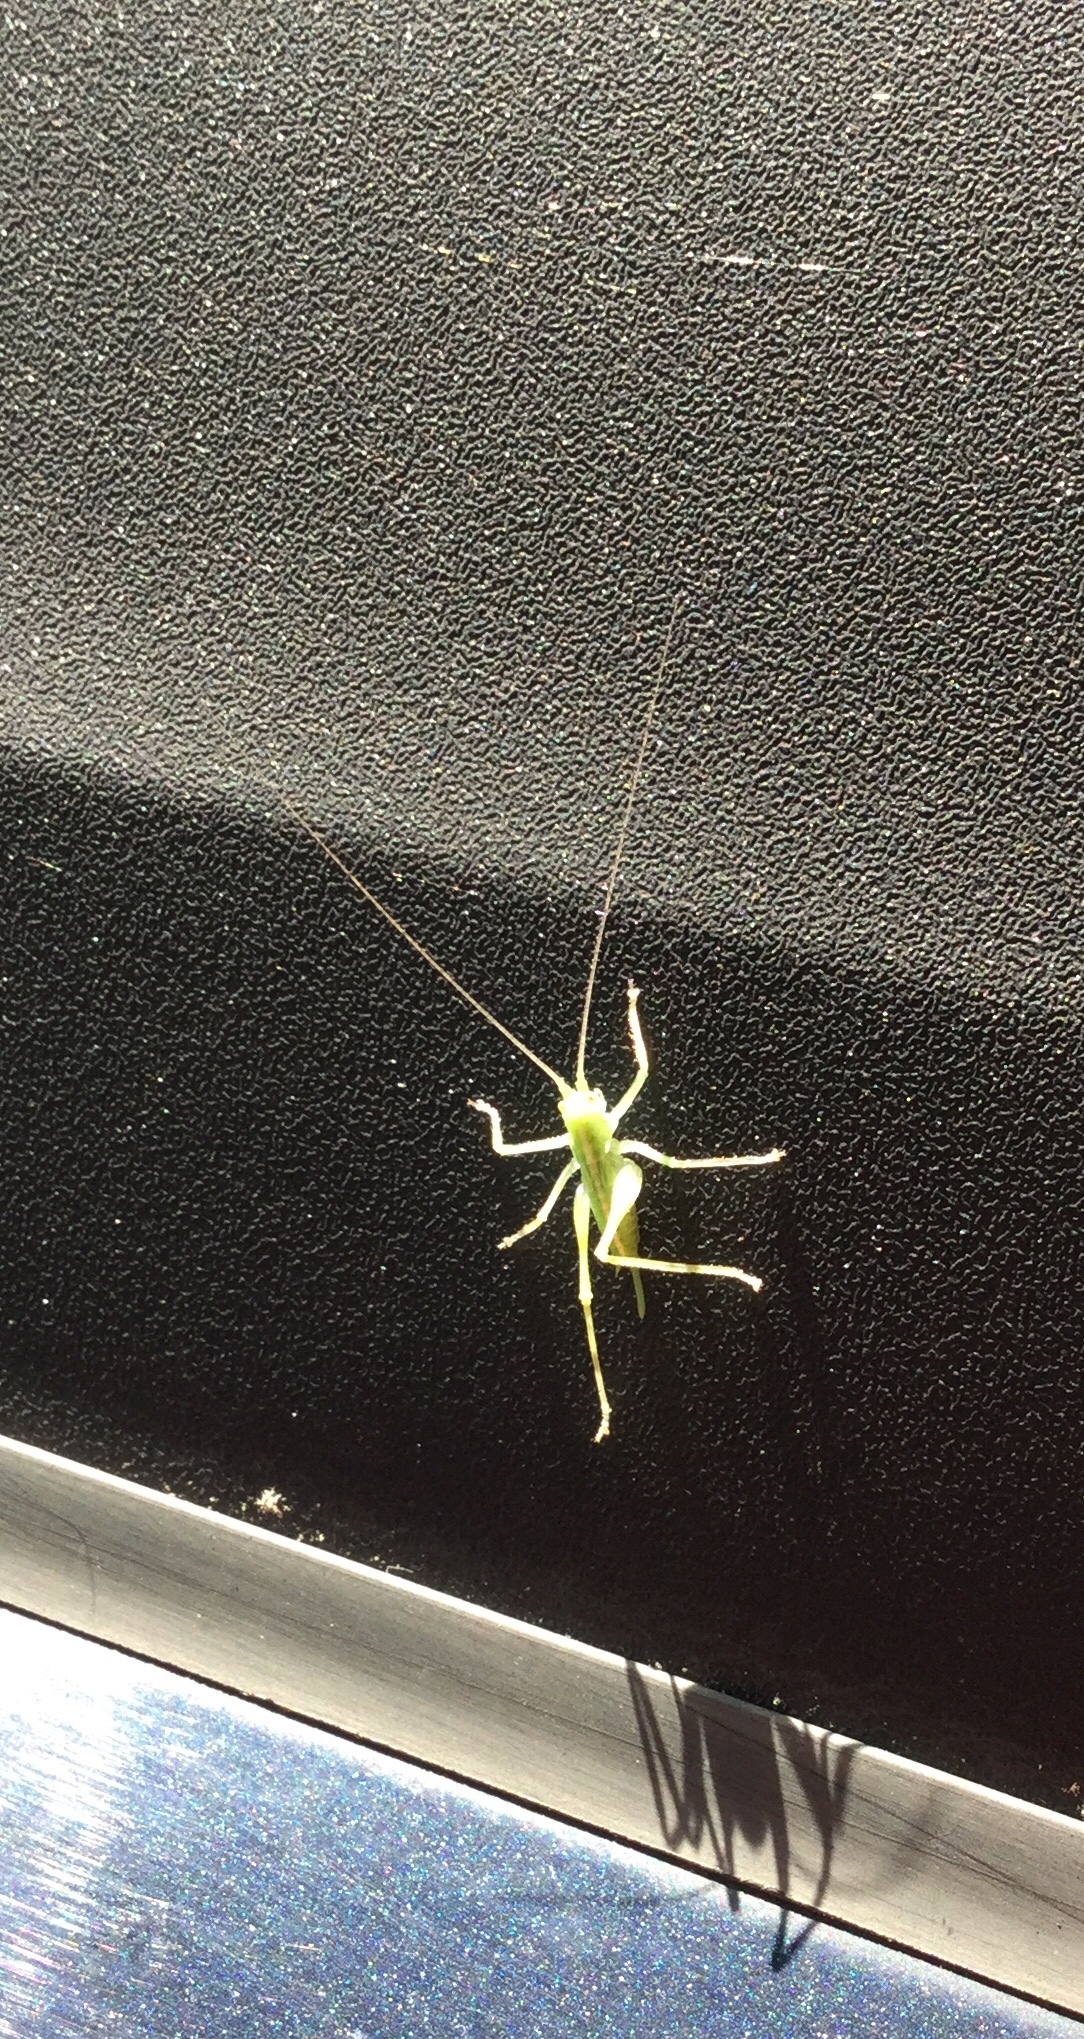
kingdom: Animalia
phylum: Arthropoda
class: Insecta
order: Orthoptera
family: Tettigoniidae
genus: Meconema
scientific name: Meconema thalassinum
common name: Oak bush-cricket
